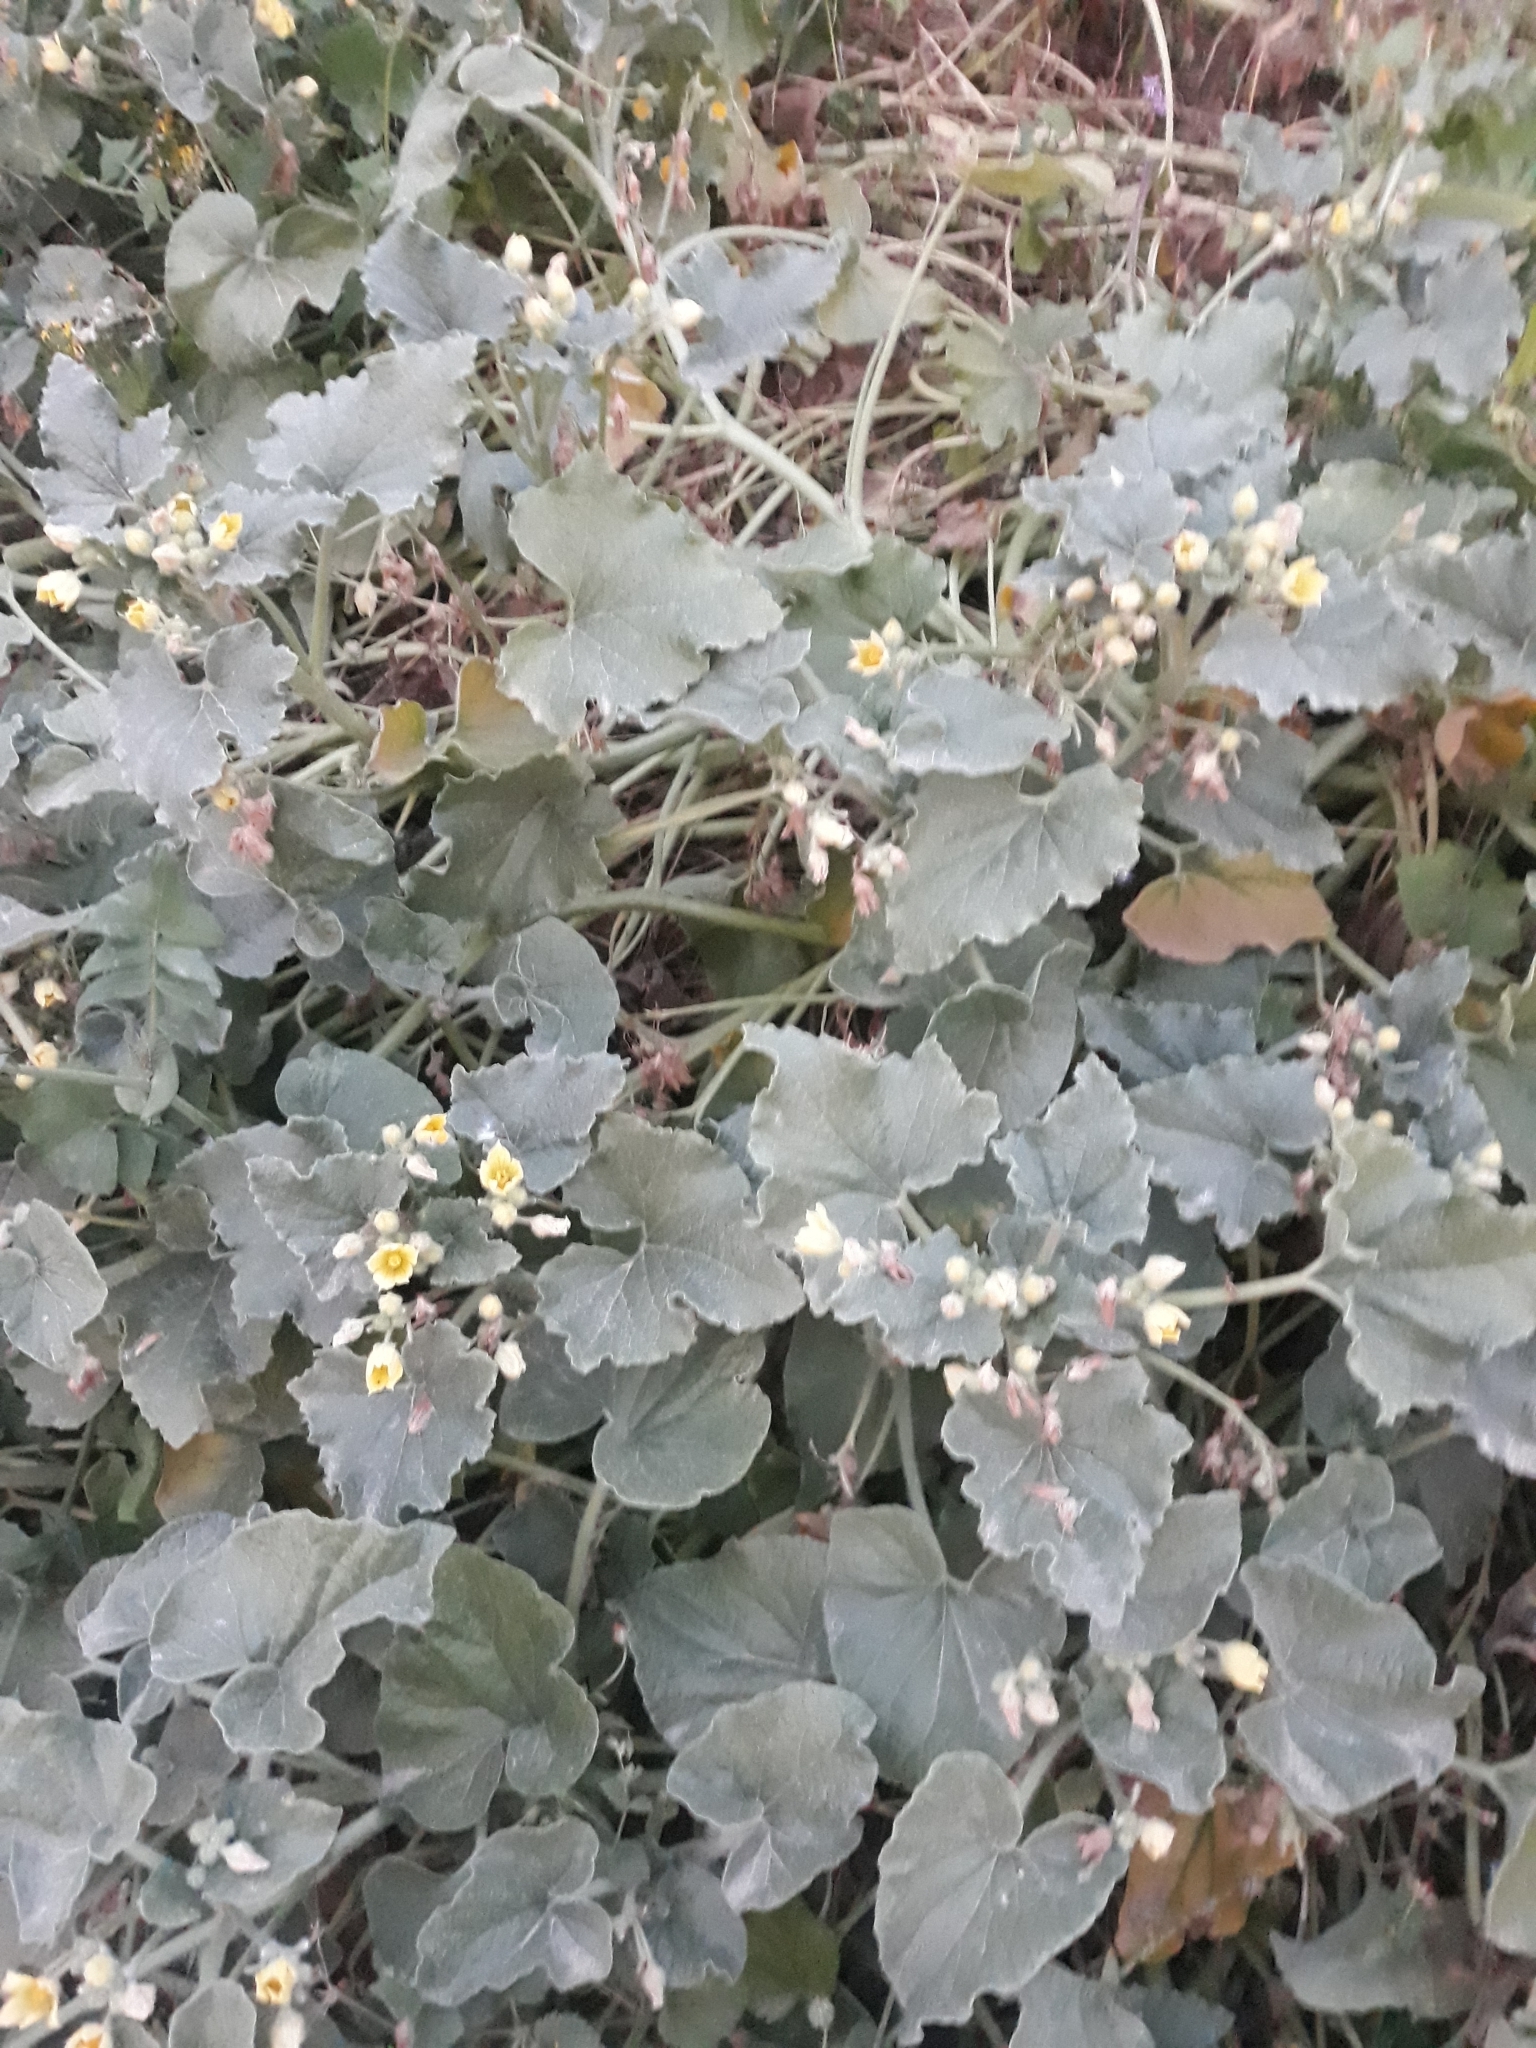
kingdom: Plantae
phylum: Tracheophyta
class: Magnoliopsida
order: Cucurbitales
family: Cucurbitaceae
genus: Ecballium
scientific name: Ecballium elaterium
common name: Squirting cucumber
